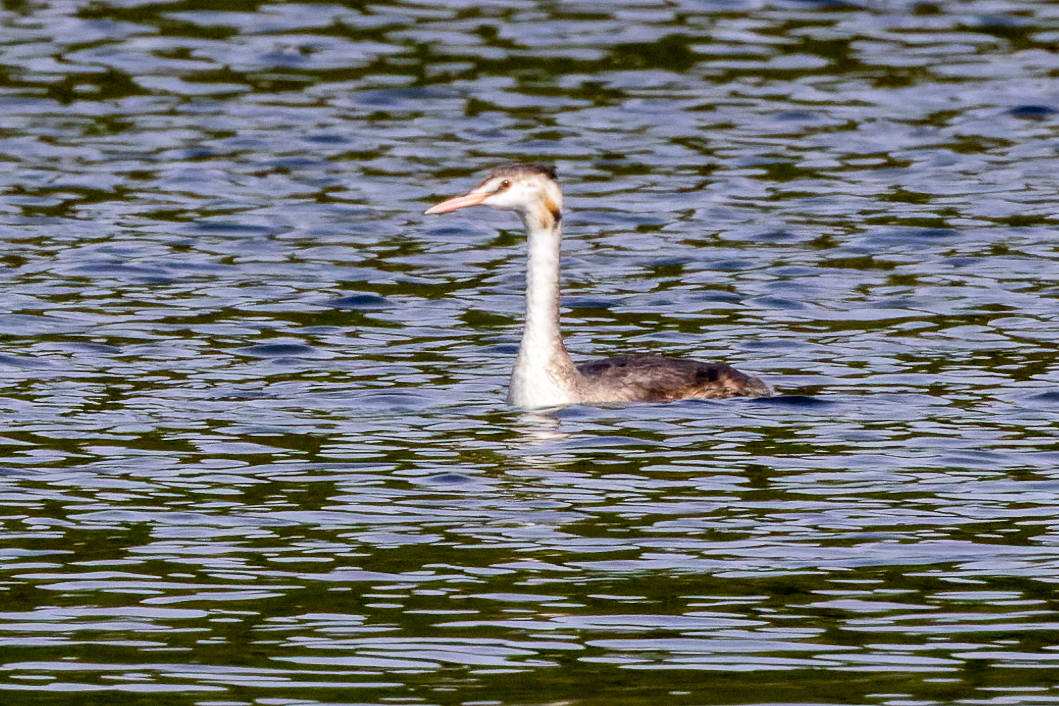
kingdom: Animalia
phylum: Chordata
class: Aves
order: Podicipediformes
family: Podicipedidae
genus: Podiceps
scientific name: Podiceps cristatus
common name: Great crested grebe
